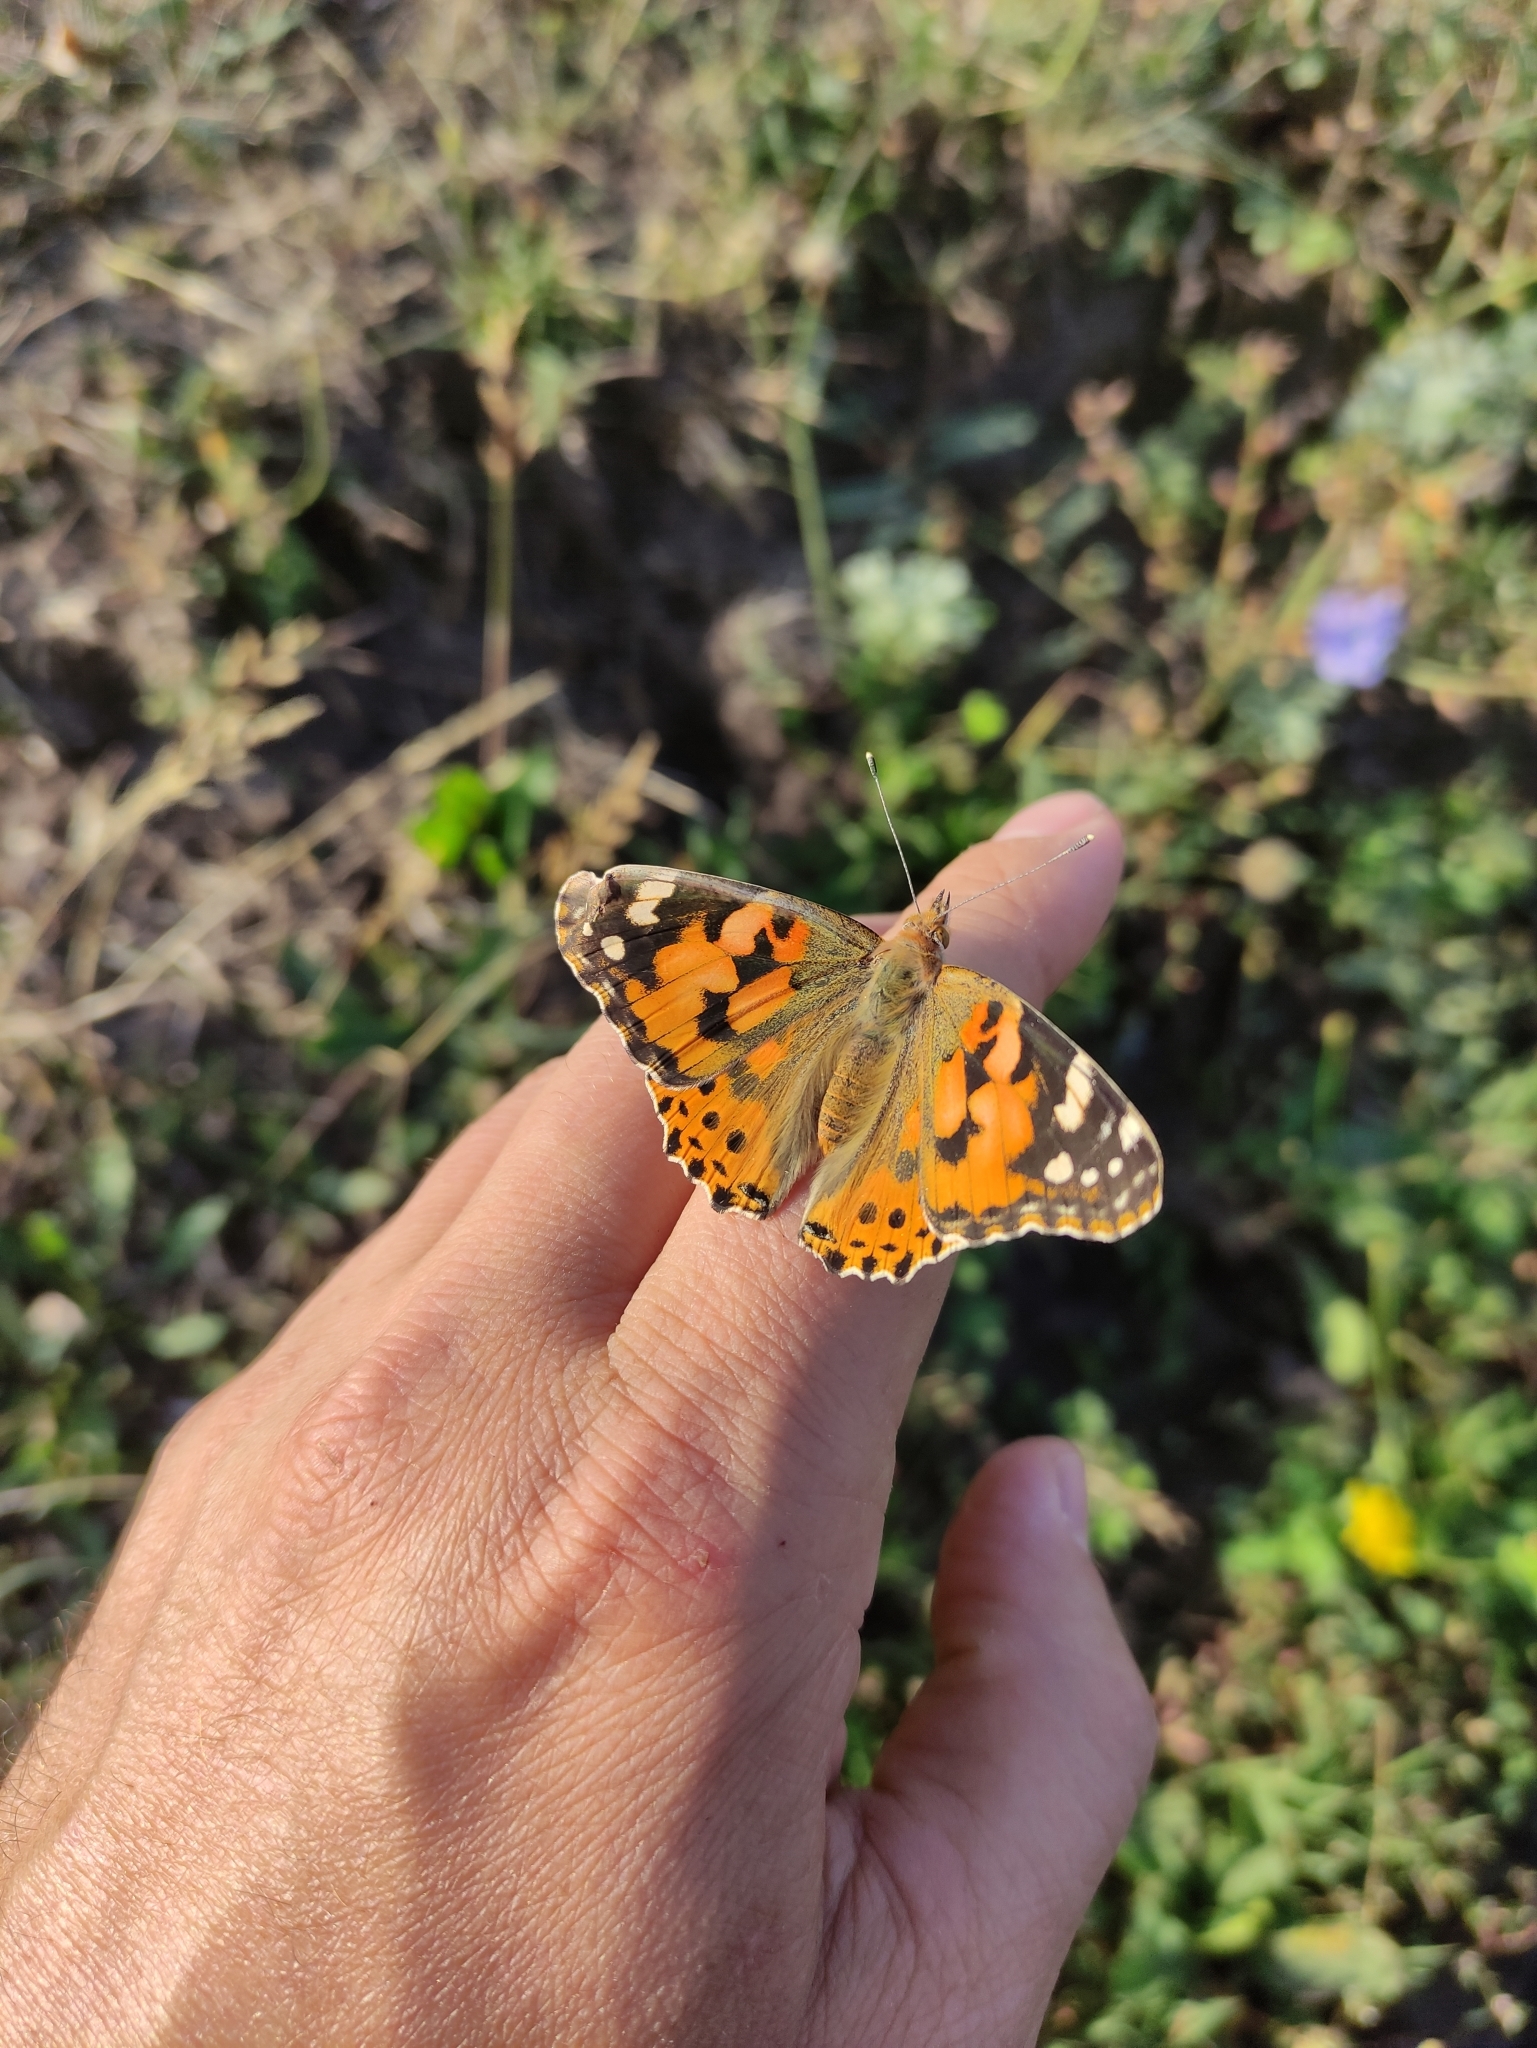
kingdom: Animalia
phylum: Arthropoda
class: Insecta
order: Lepidoptera
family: Nymphalidae
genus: Vanessa
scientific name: Vanessa cardui
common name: Painted lady
